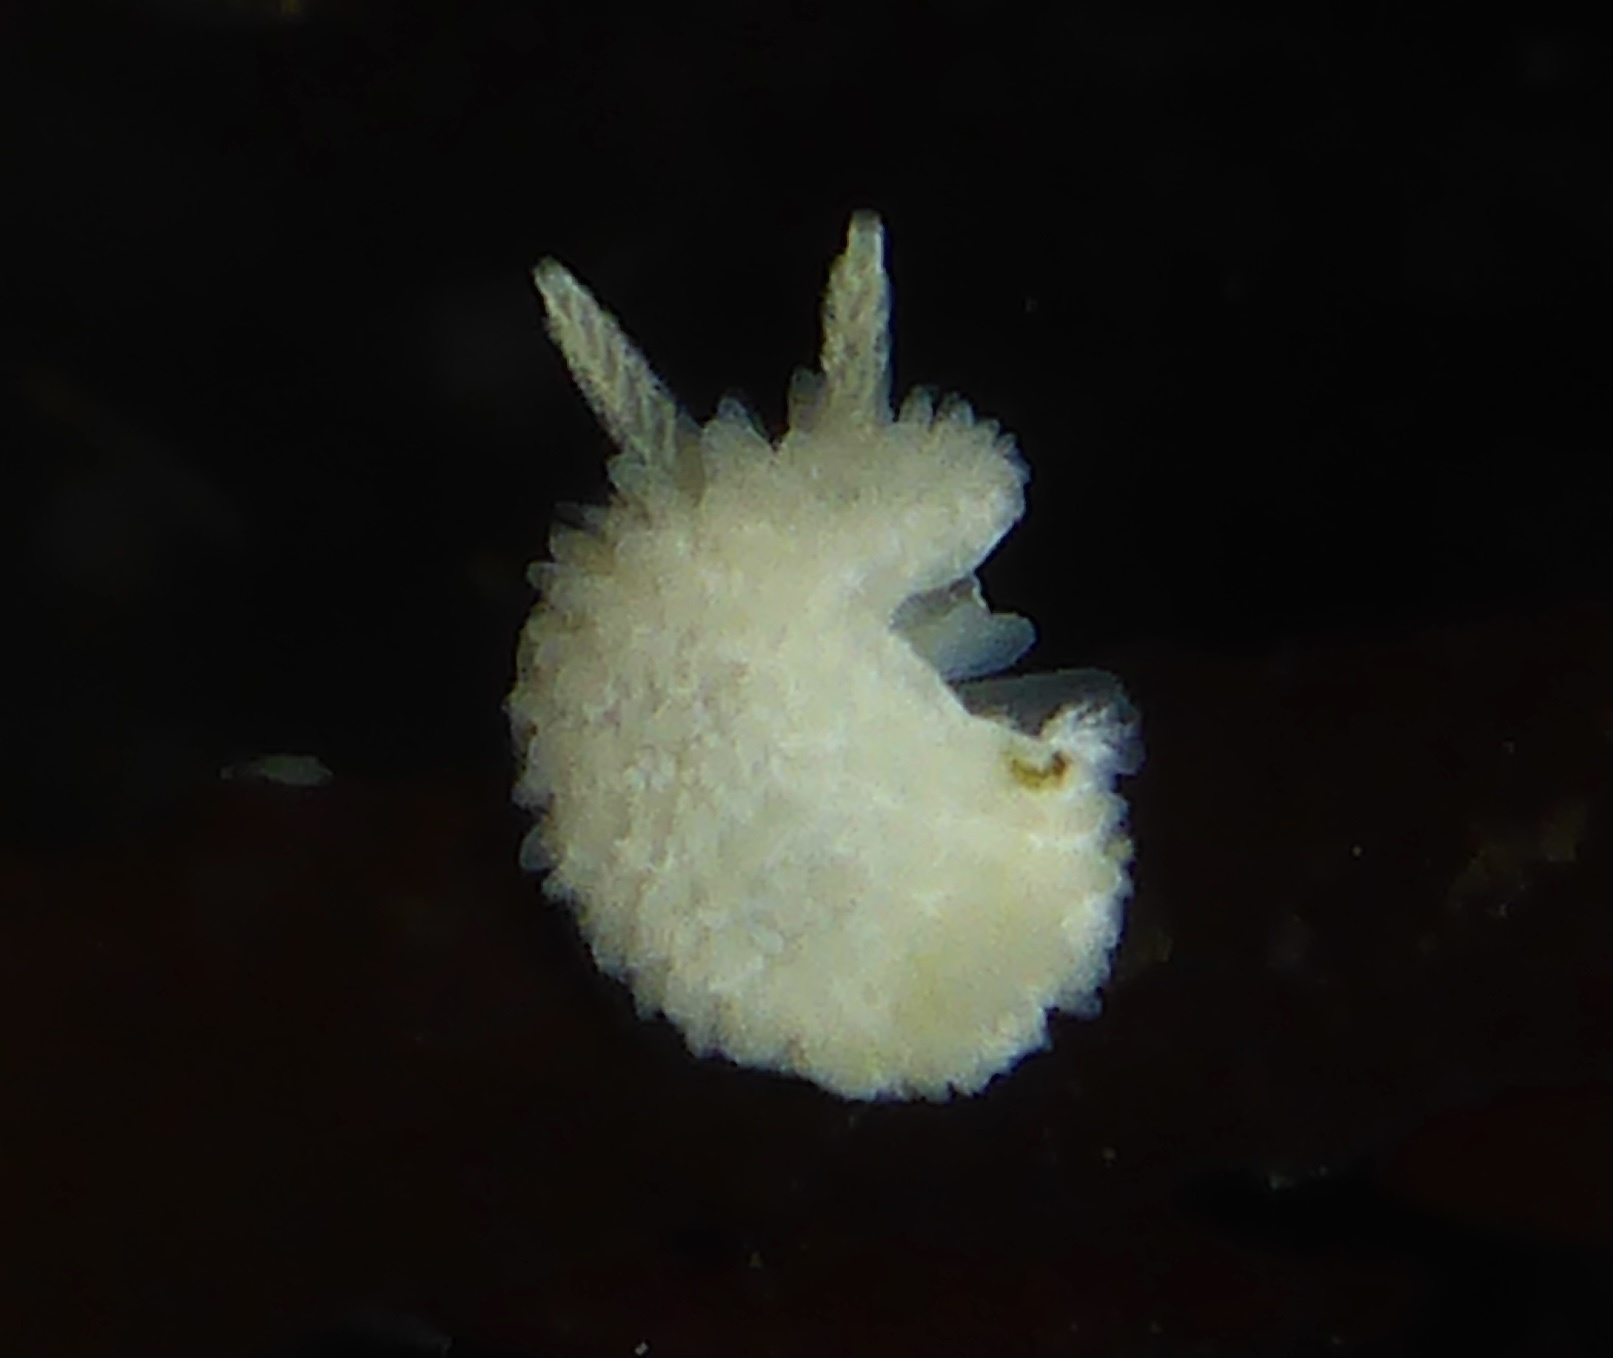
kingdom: Animalia
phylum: Mollusca
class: Gastropoda
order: Nudibranchia
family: Calycidorididae
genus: Diaphorodoris
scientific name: Diaphorodoris lirulatocauda
